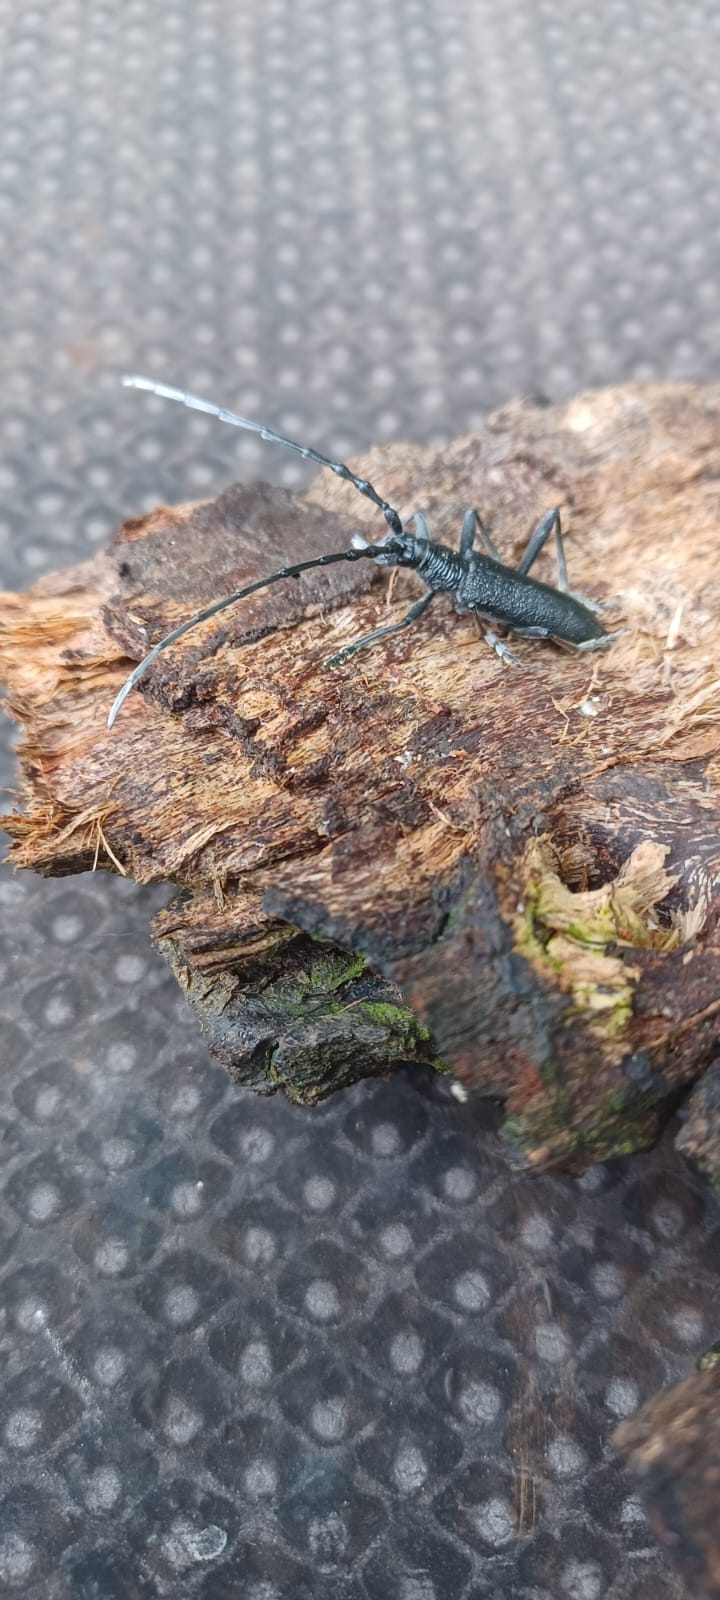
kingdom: Animalia
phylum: Arthropoda
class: Insecta
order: Coleoptera
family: Cerambycidae
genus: Cerambyx
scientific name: Cerambyx scopolii
